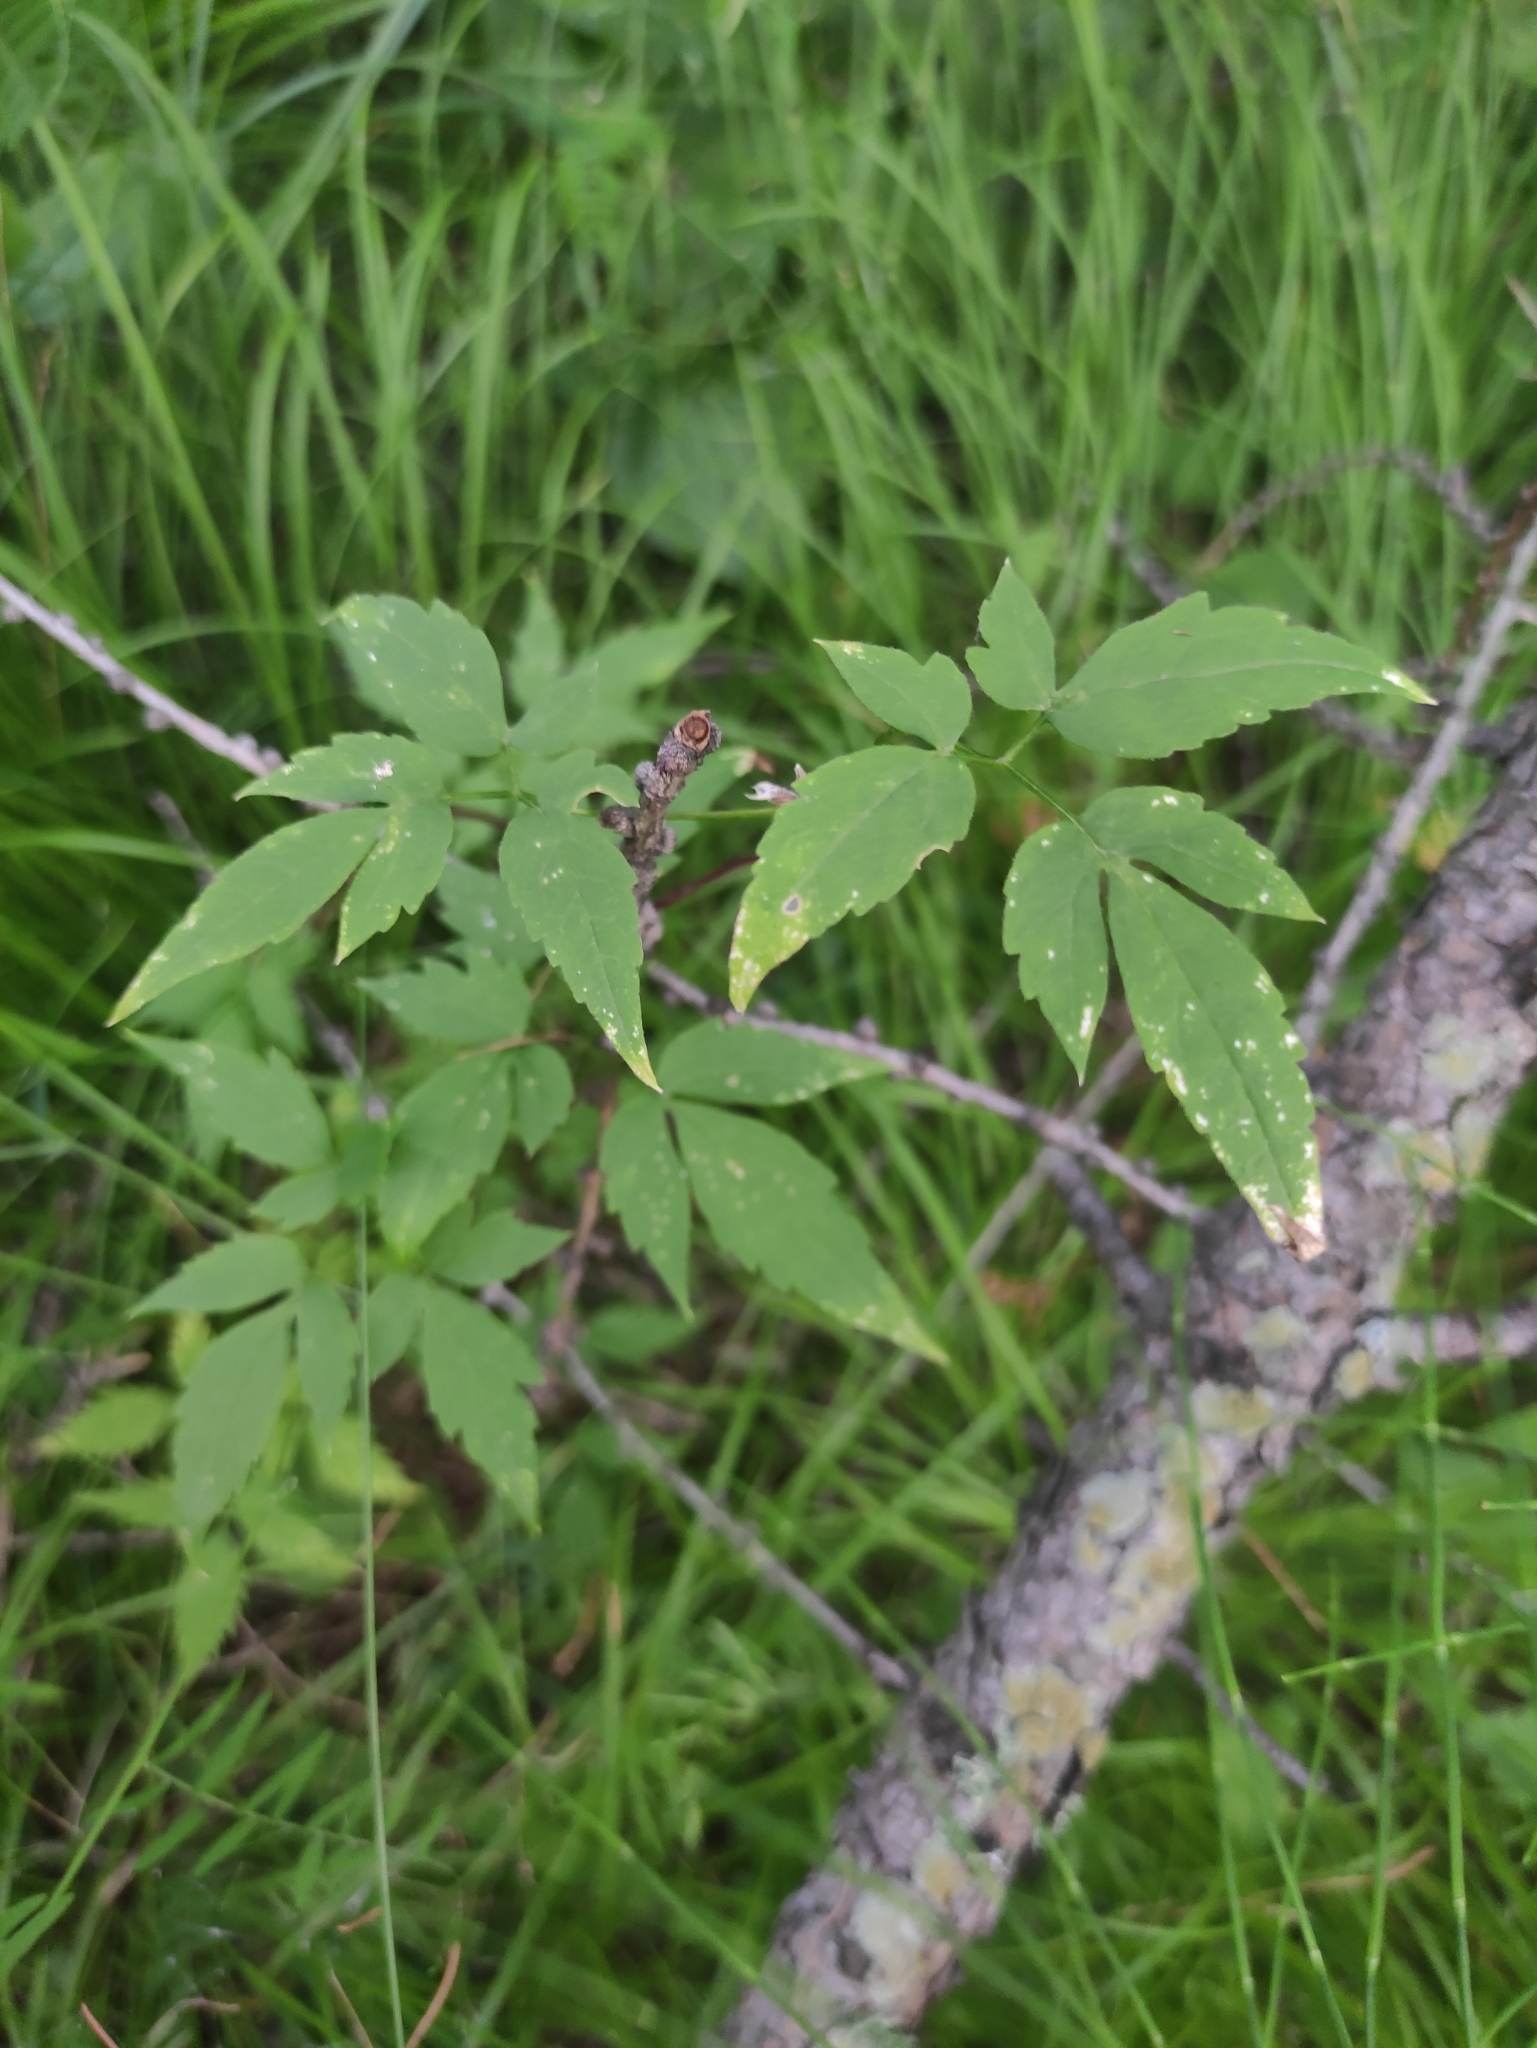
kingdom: Plantae
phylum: Tracheophyta
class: Magnoliopsida
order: Ranunculales
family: Ranunculaceae
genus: Clematis
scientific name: Clematis sibirica
